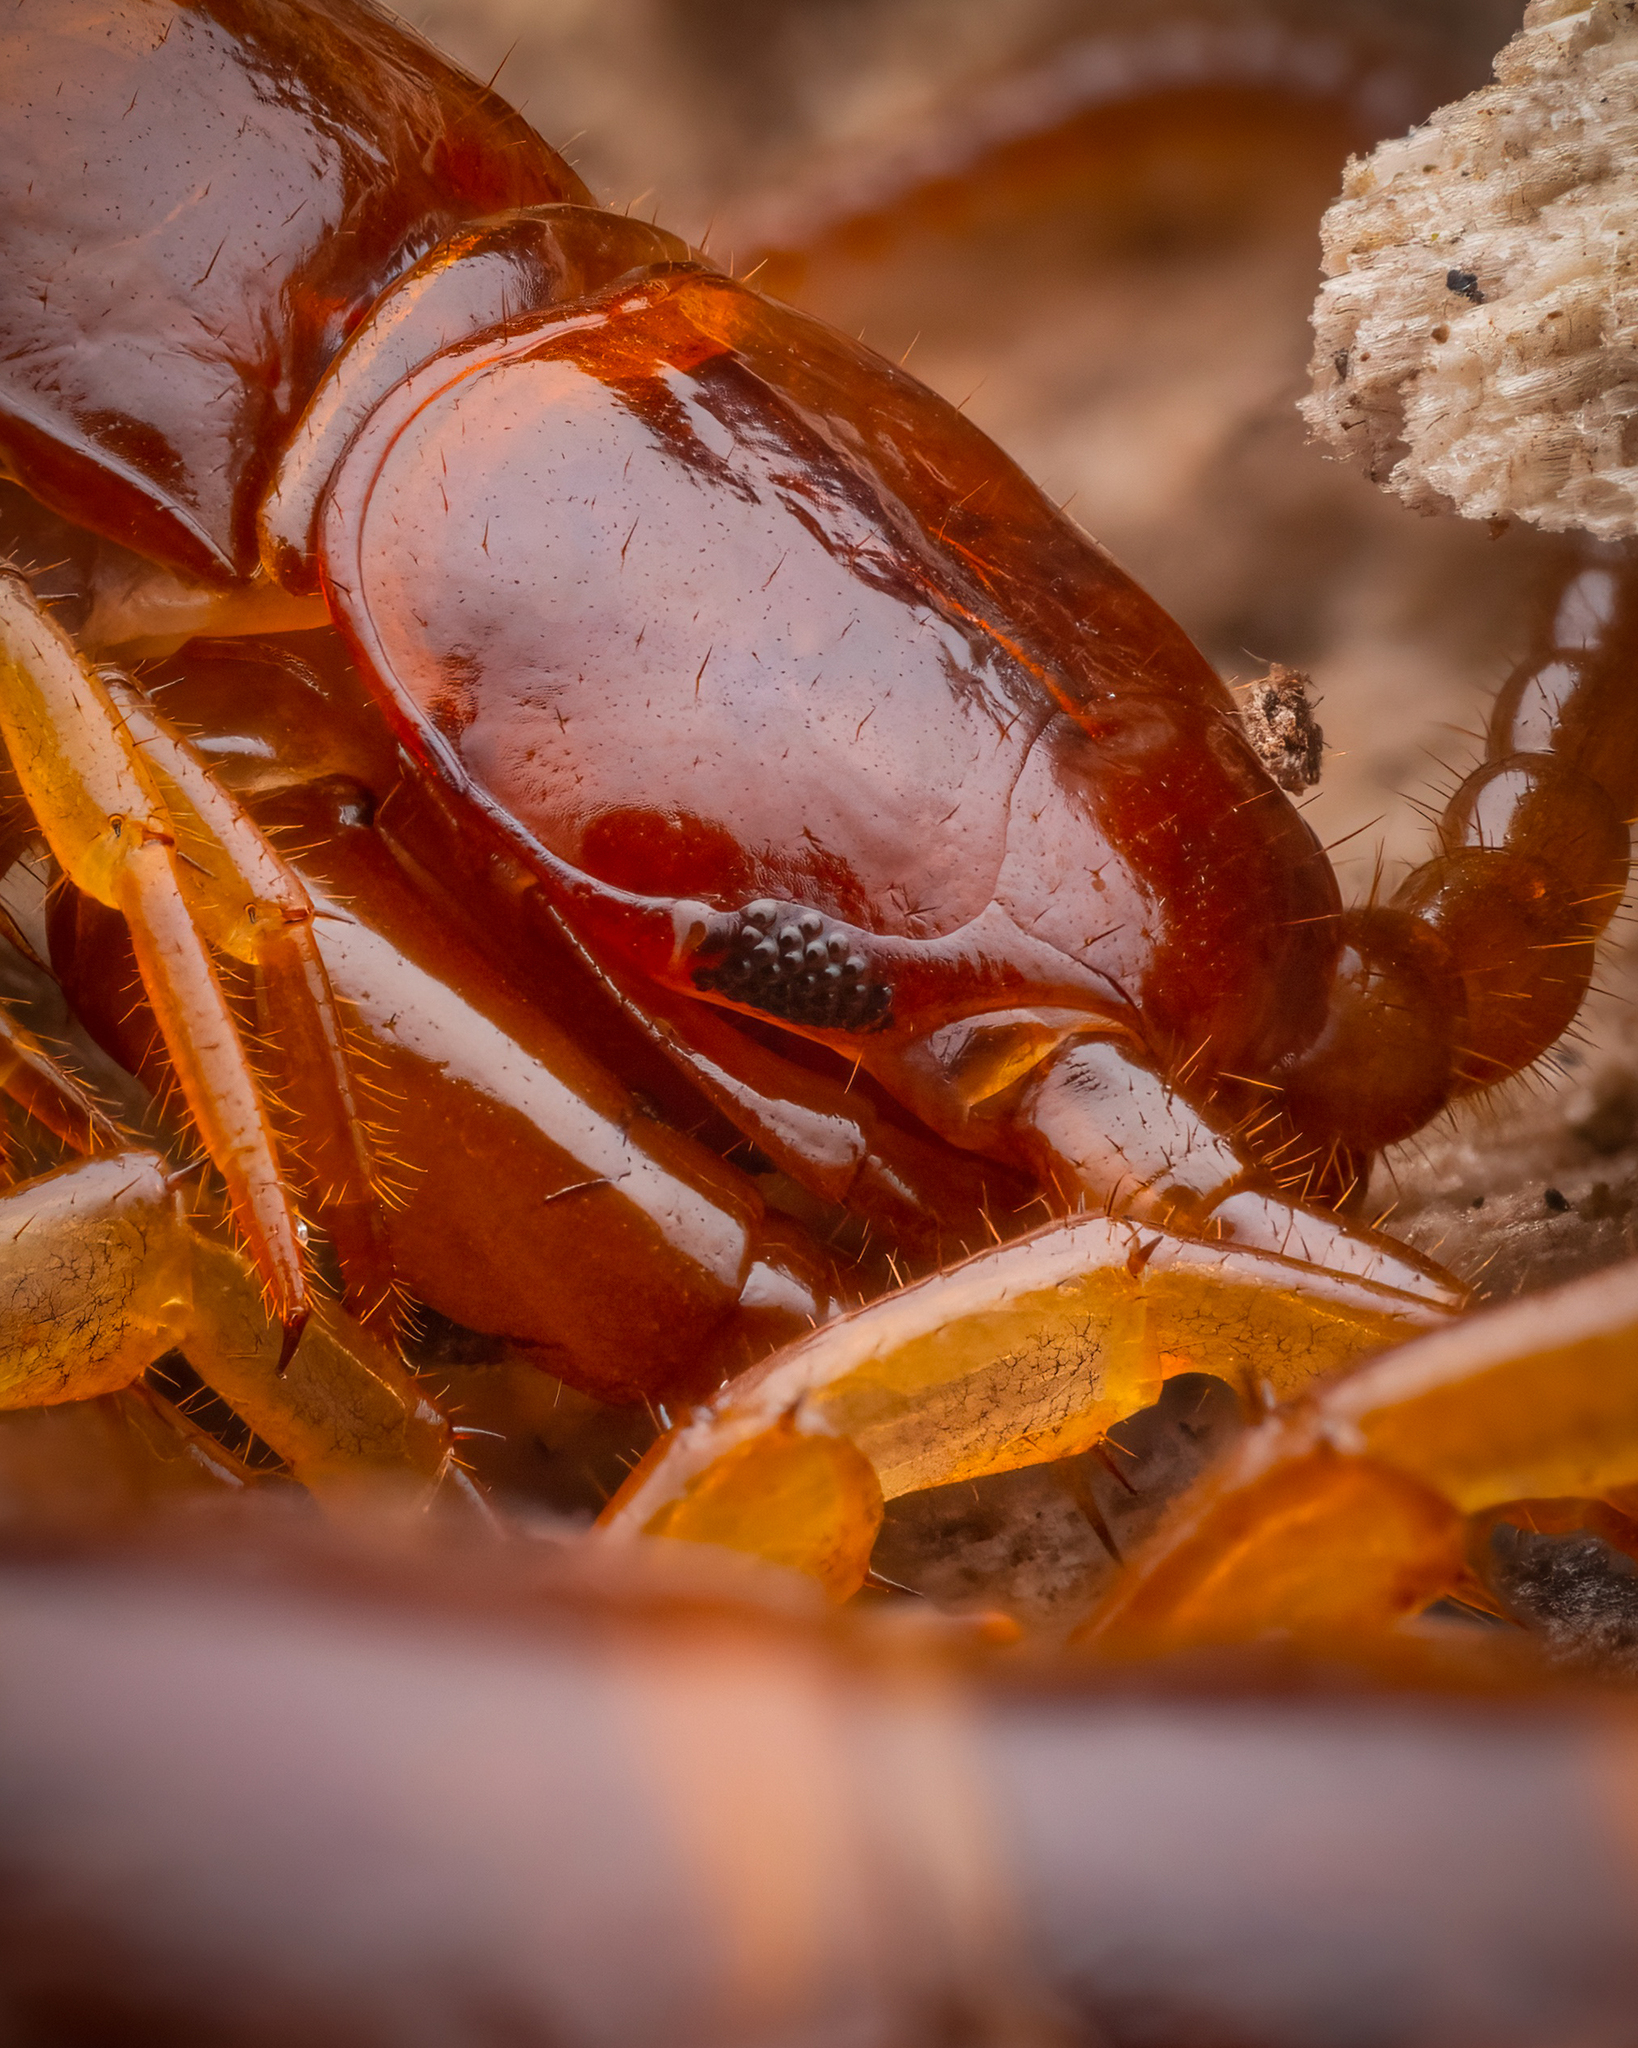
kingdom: Animalia
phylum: Arthropoda
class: Chilopoda
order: Lithobiomorpha
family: Lithobiidae
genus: Lithobius
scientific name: Lithobius forficatus
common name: Centipede
